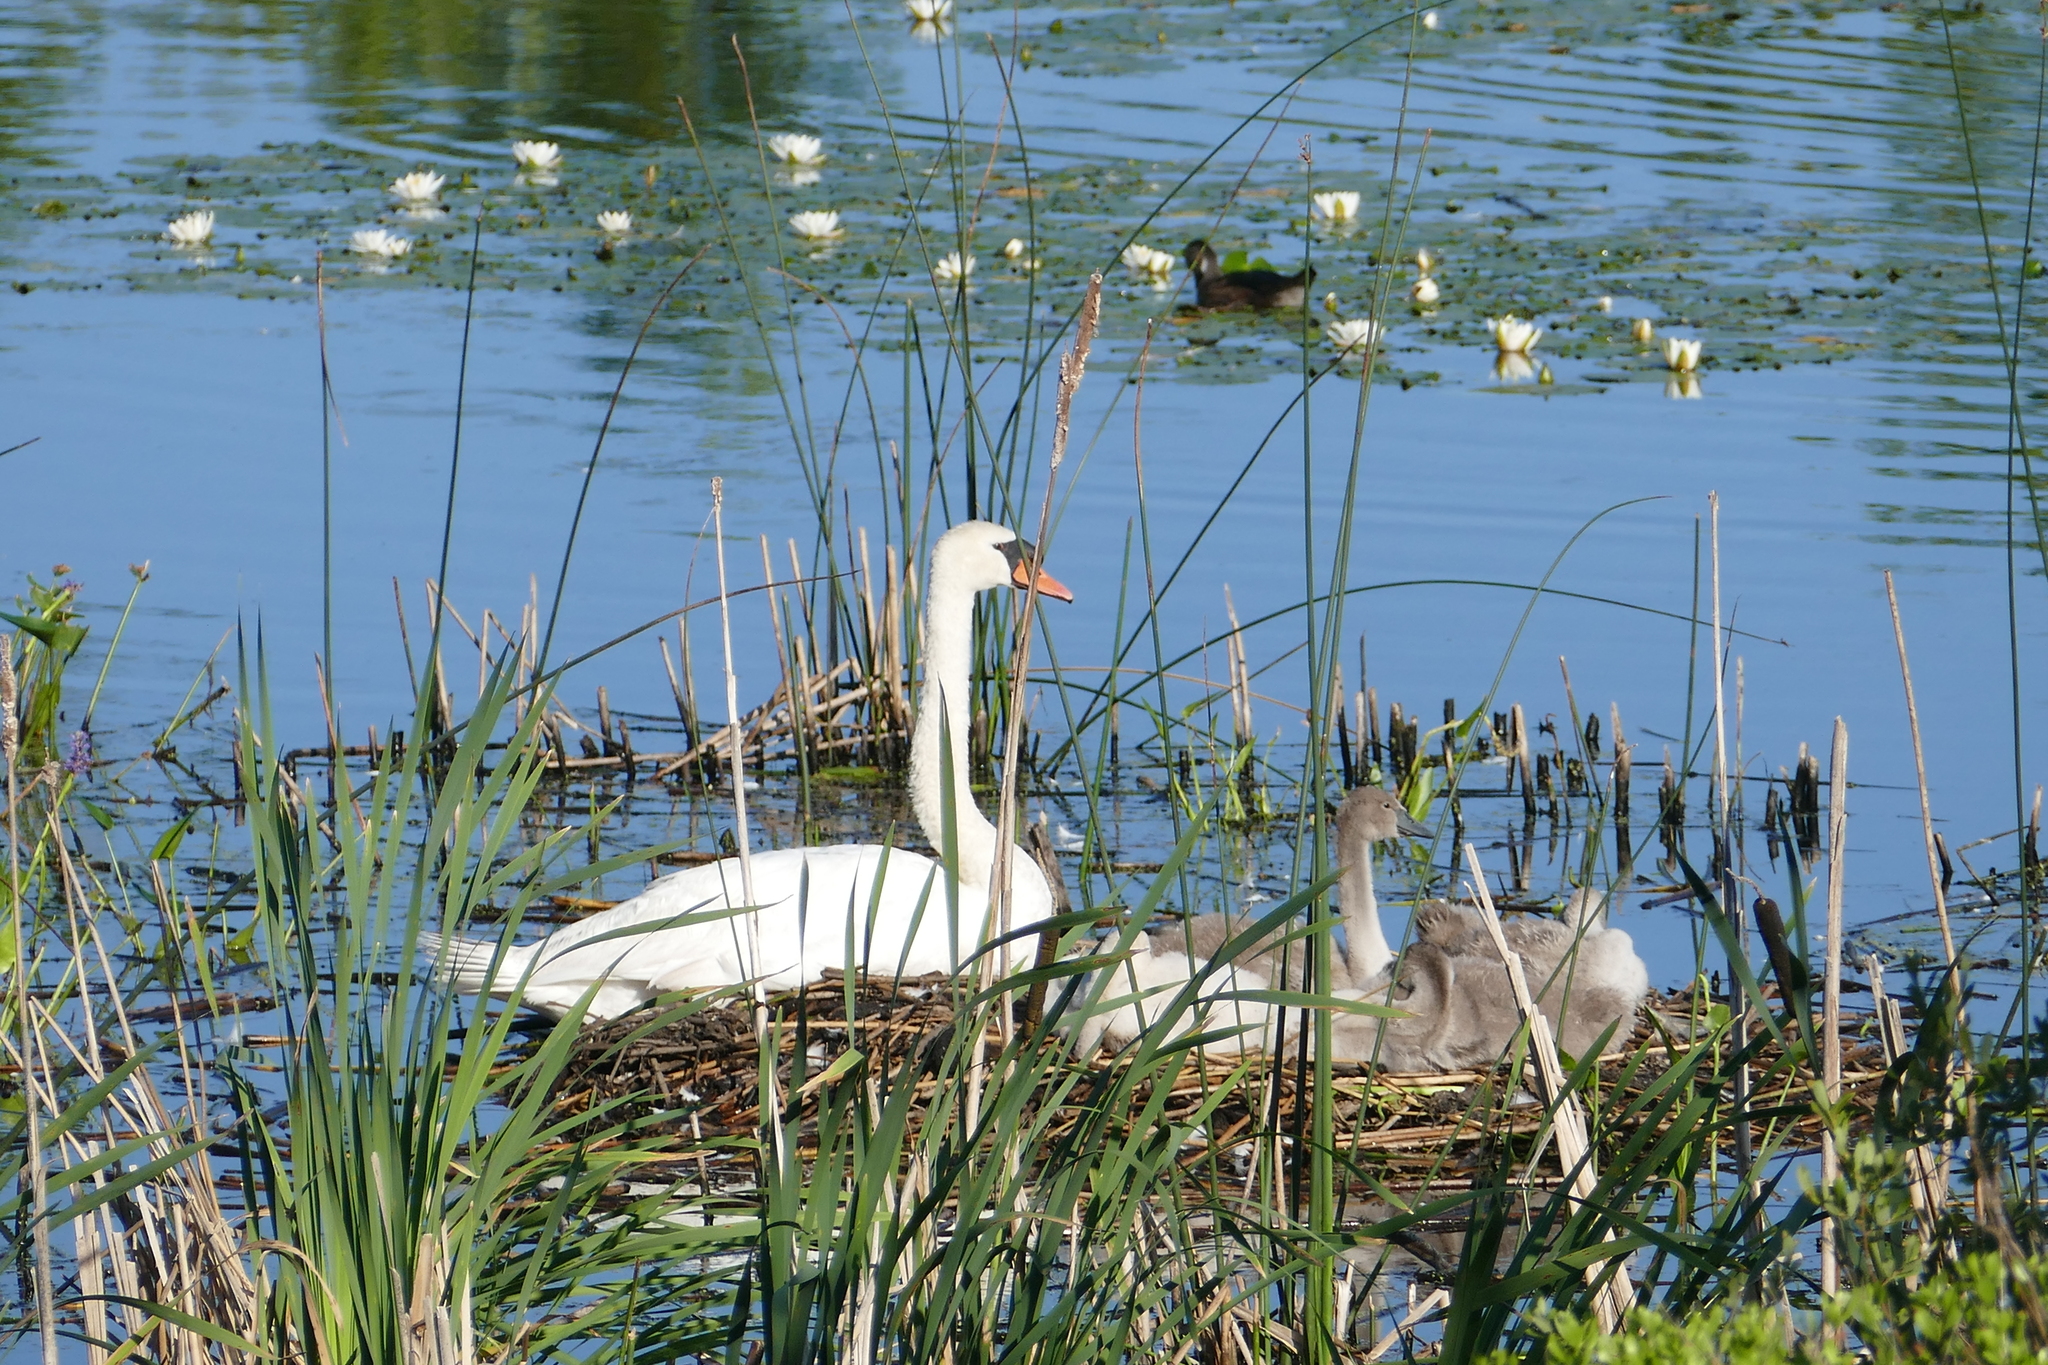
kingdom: Animalia
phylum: Chordata
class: Aves
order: Anseriformes
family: Anatidae
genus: Cygnus
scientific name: Cygnus olor
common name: Mute swan
